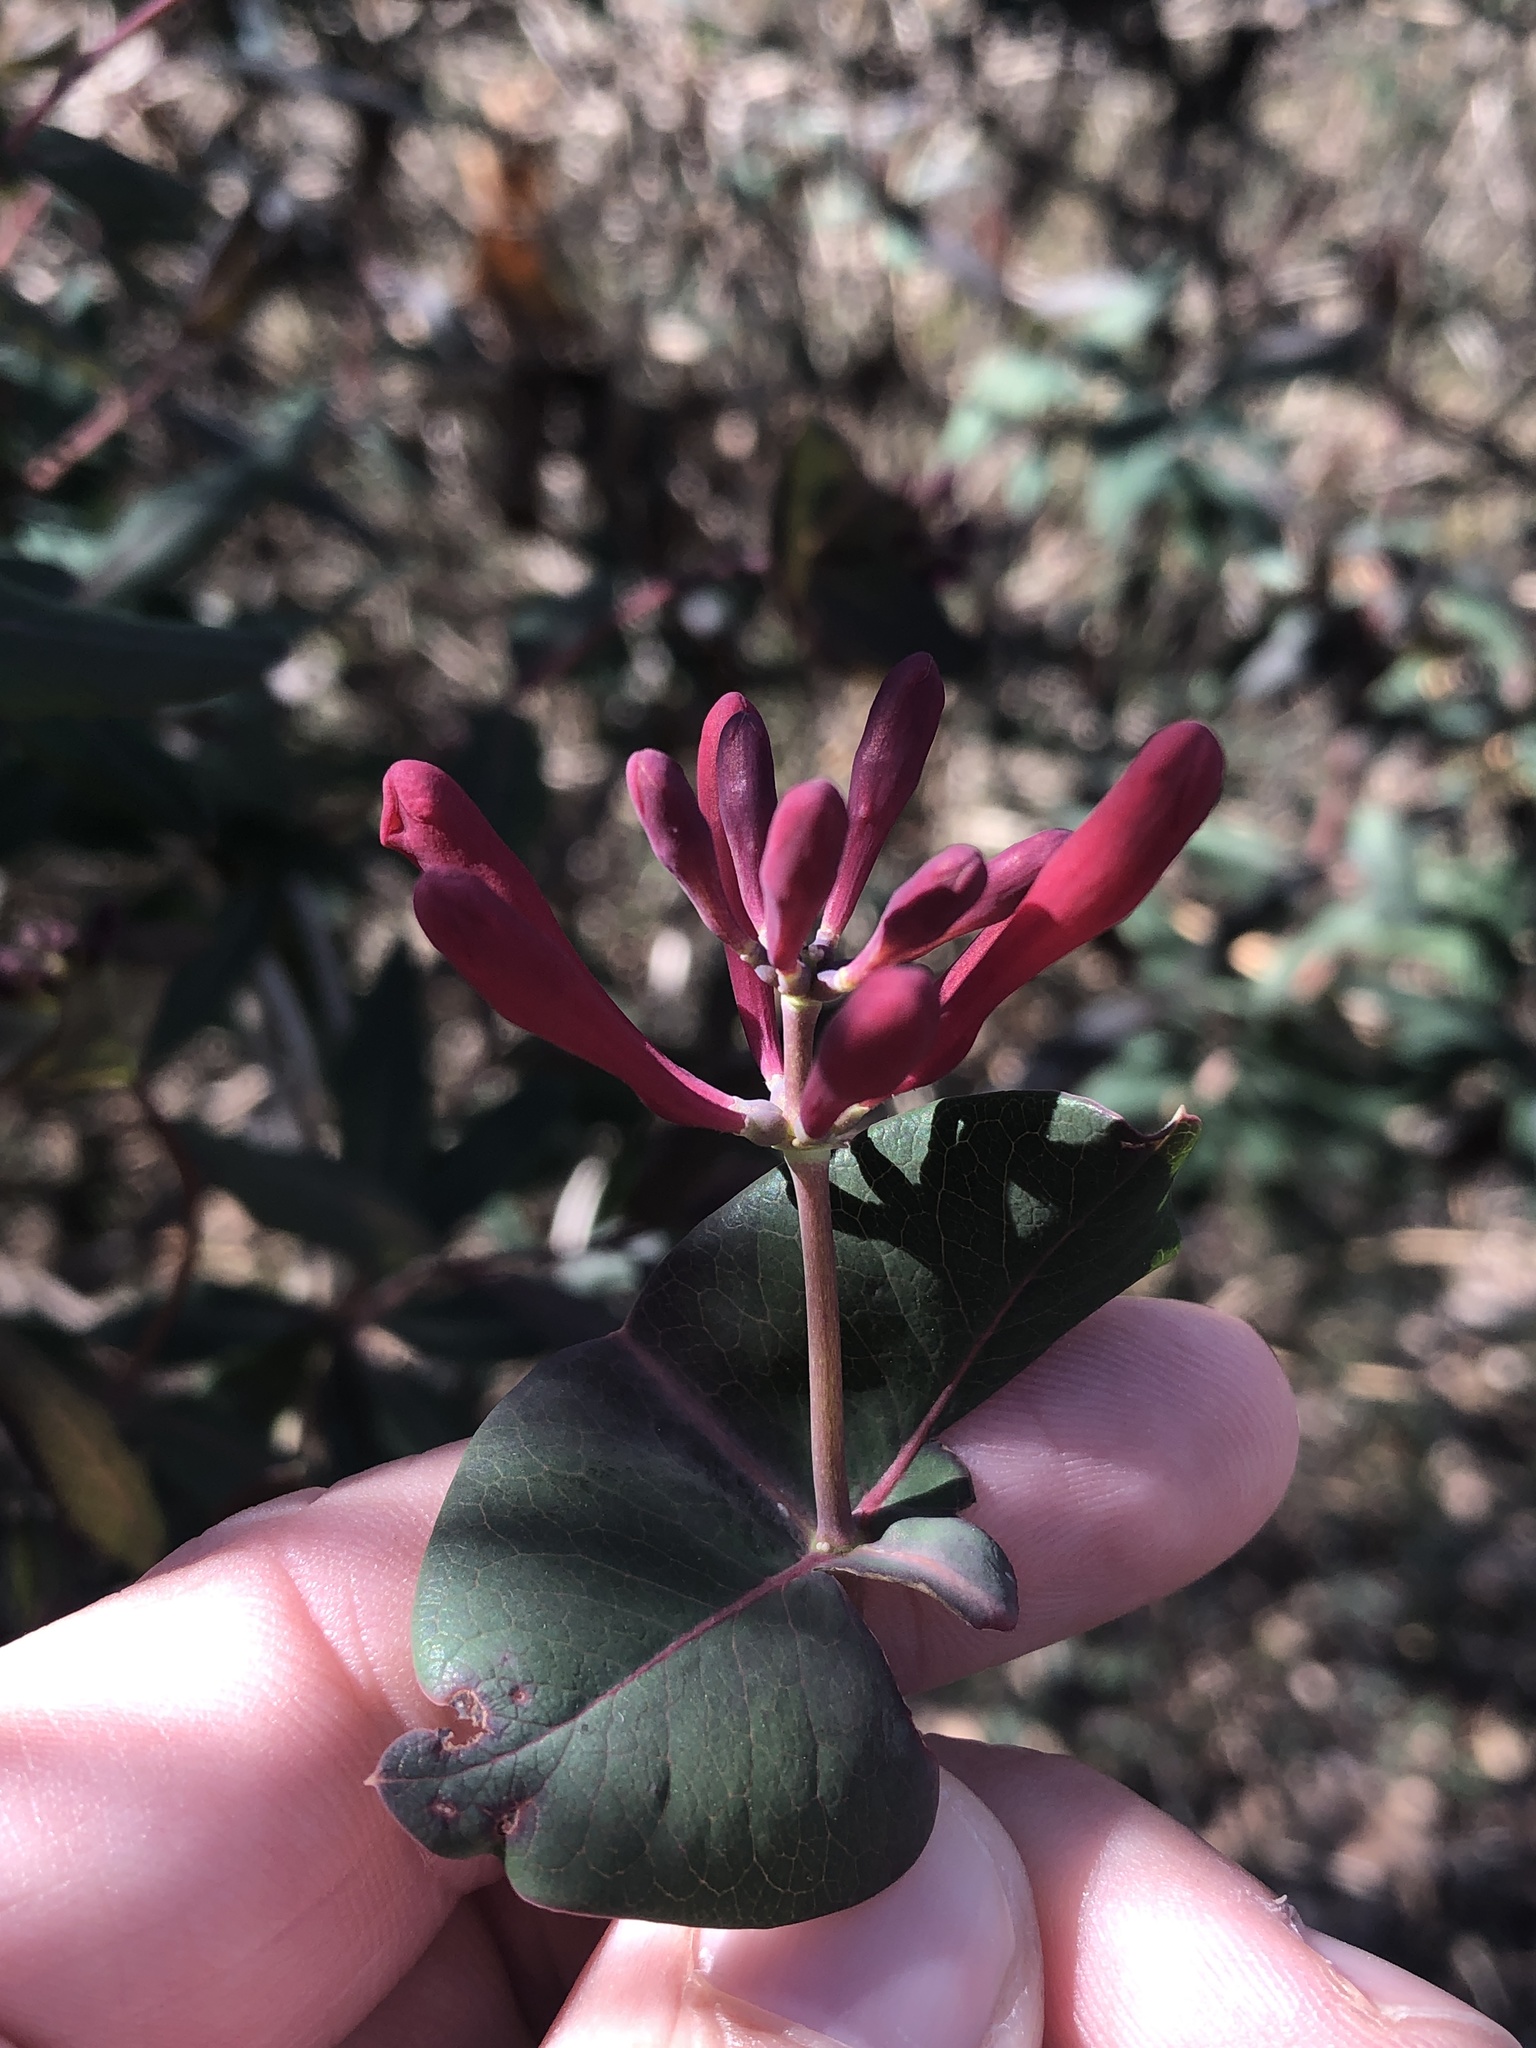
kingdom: Plantae
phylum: Tracheophyta
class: Magnoliopsida
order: Dipsacales
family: Caprifoliaceae
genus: Lonicera
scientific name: Lonicera sempervirens
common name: Coral honeysuckle
